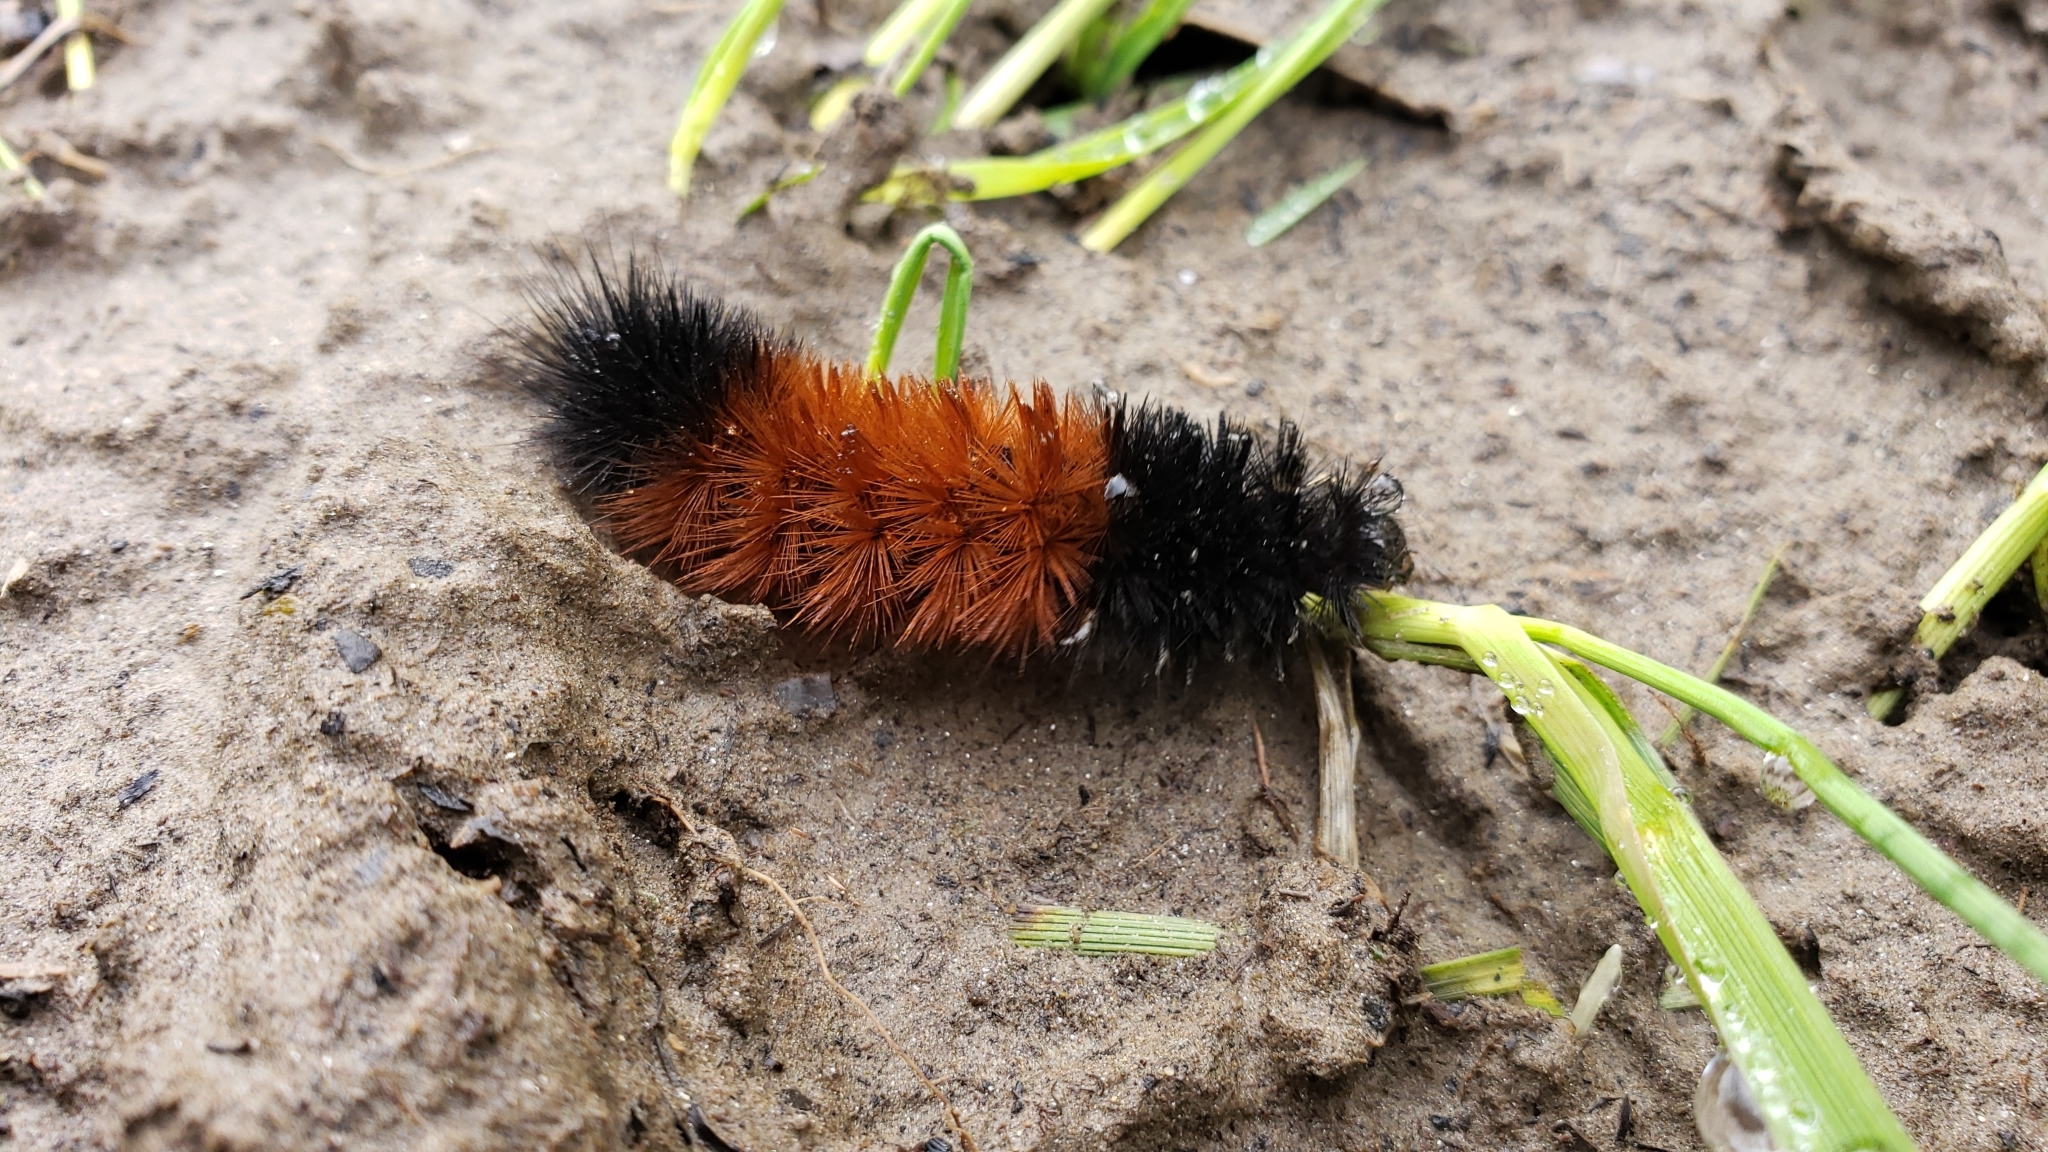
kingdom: Animalia
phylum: Arthropoda
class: Insecta
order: Lepidoptera
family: Erebidae
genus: Pyrrharctia
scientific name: Pyrrharctia isabella
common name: Isabella tiger moth
